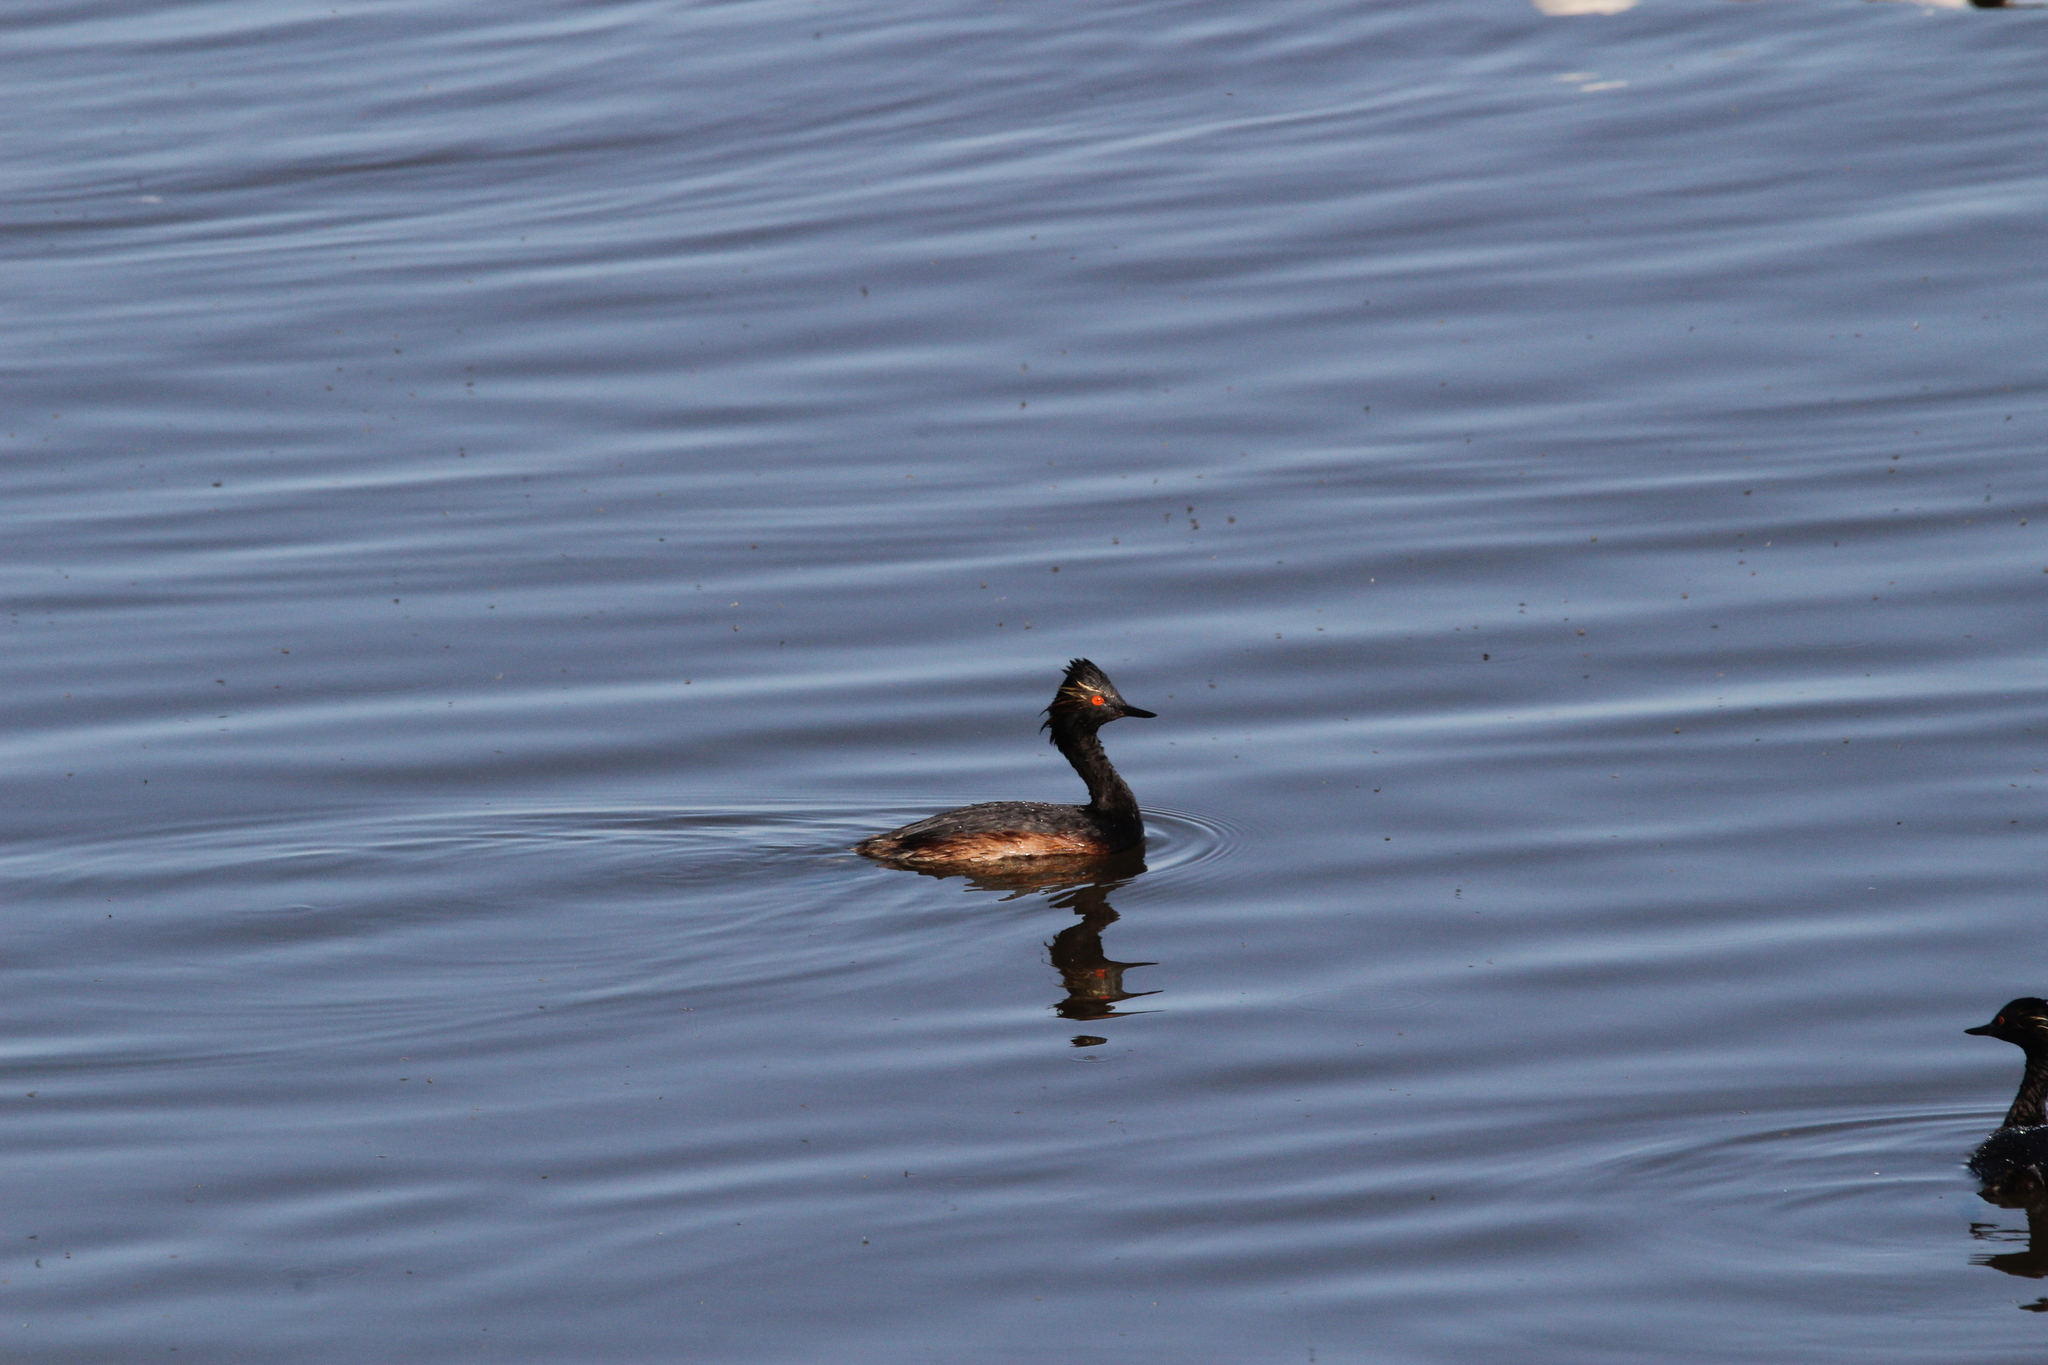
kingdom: Animalia
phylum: Chordata
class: Aves
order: Podicipediformes
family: Podicipedidae
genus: Podiceps
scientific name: Podiceps nigricollis
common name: Black-necked grebe
